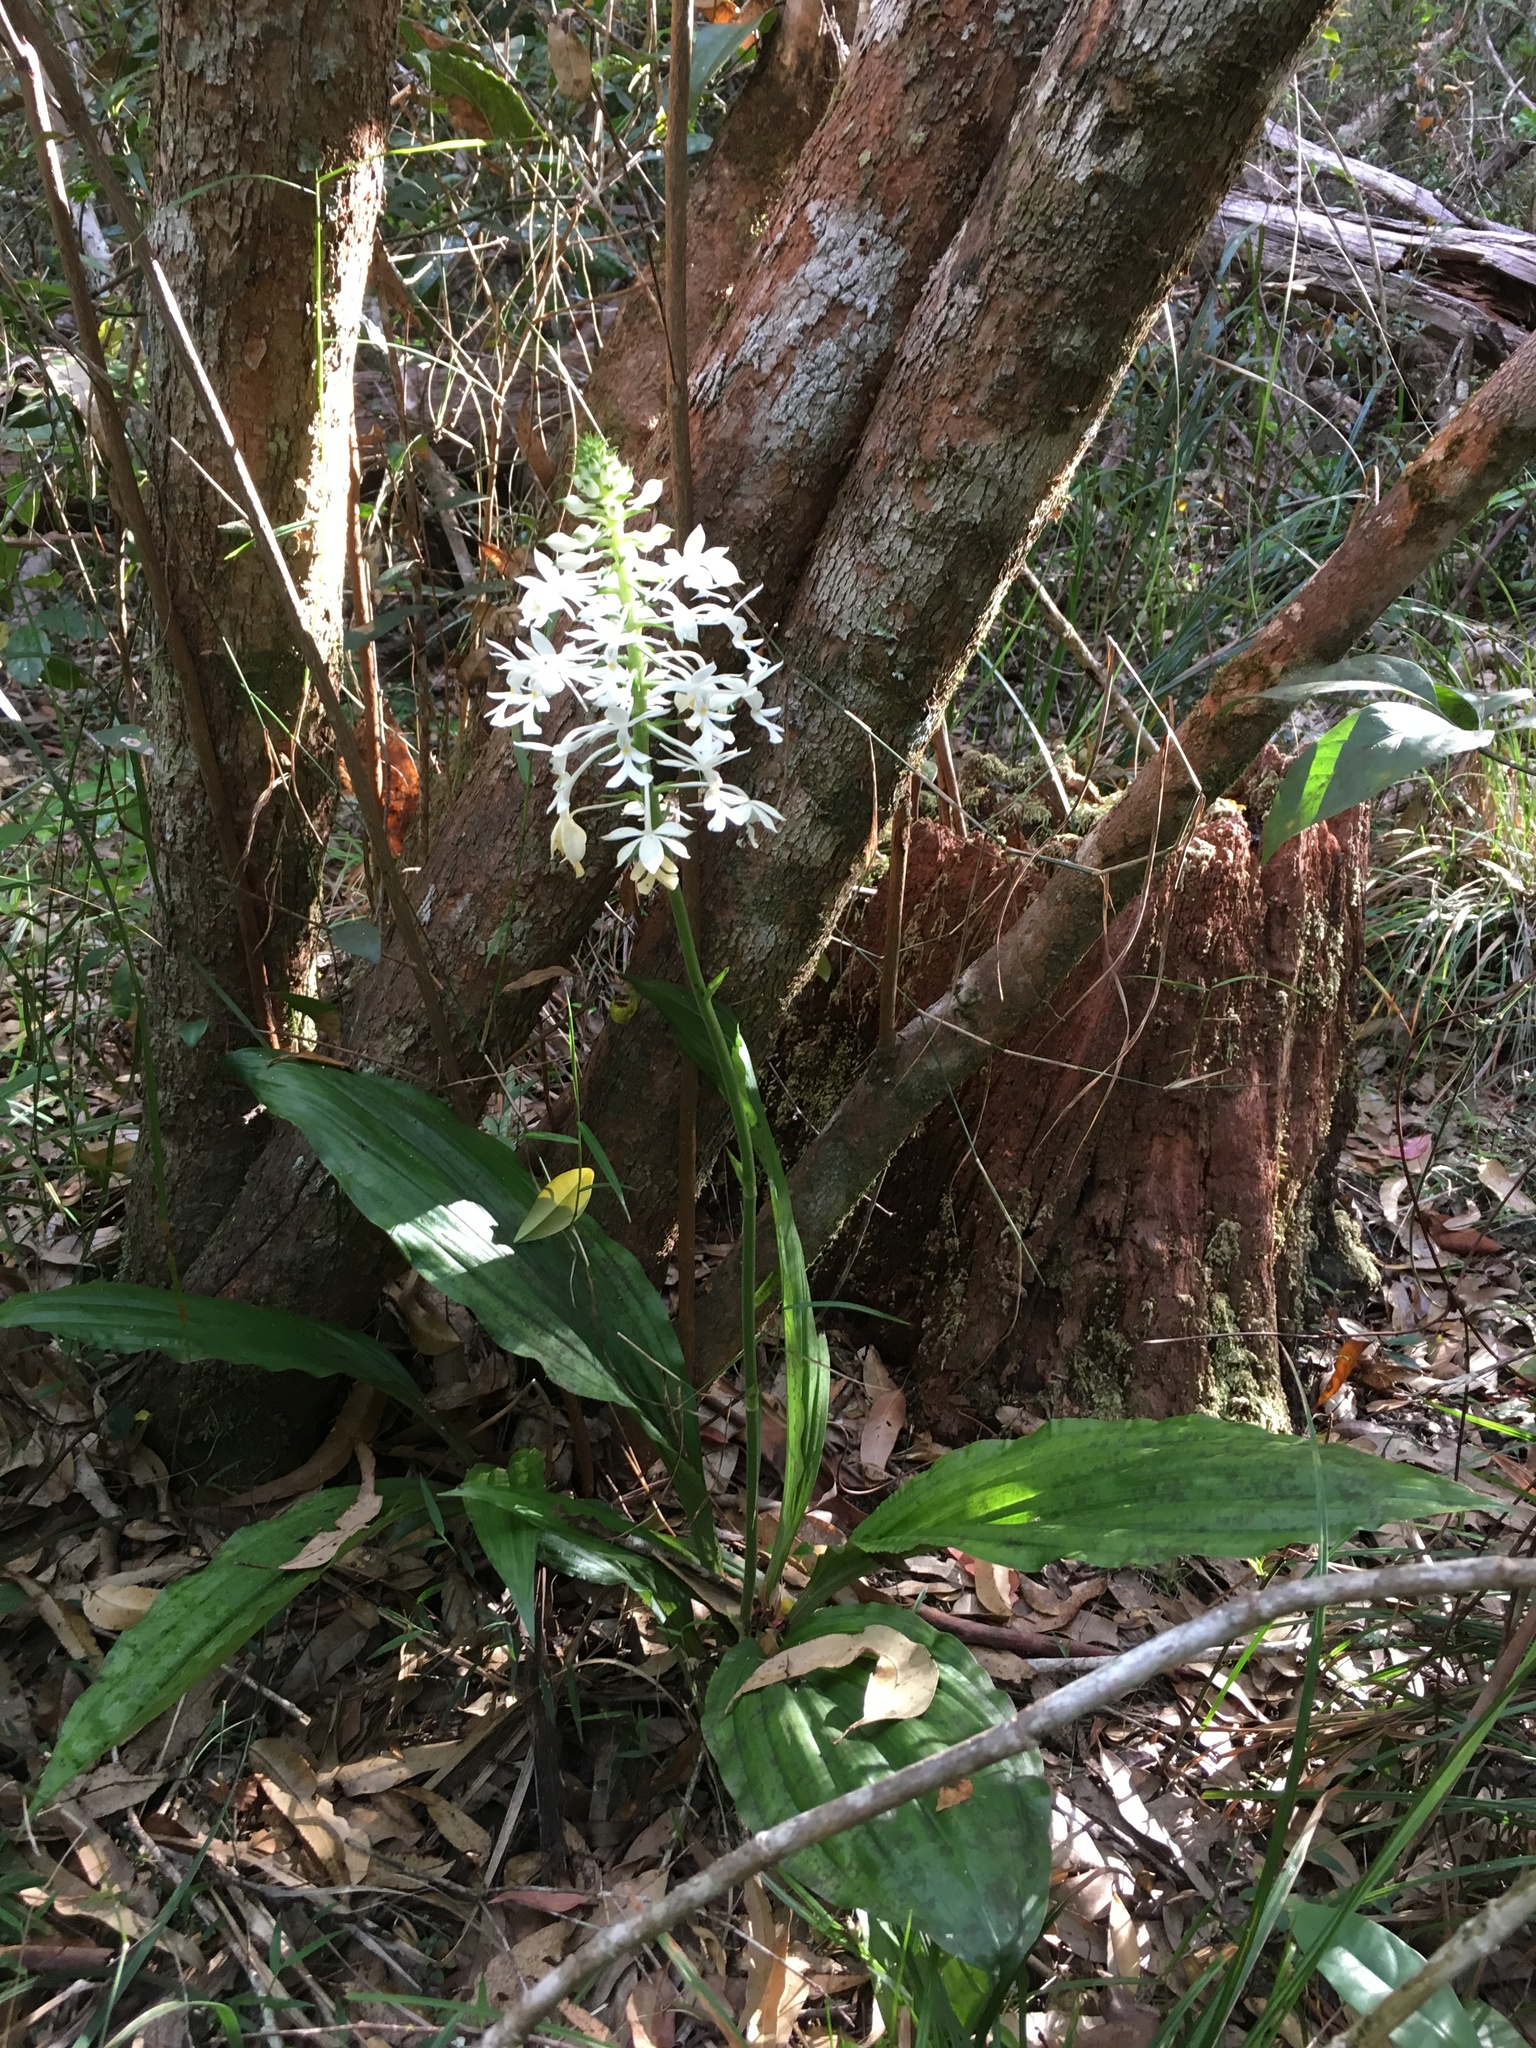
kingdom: Plantae
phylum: Tracheophyta
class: Liliopsida
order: Asparagales
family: Orchidaceae
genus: Calanthe
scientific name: Calanthe triplicata
